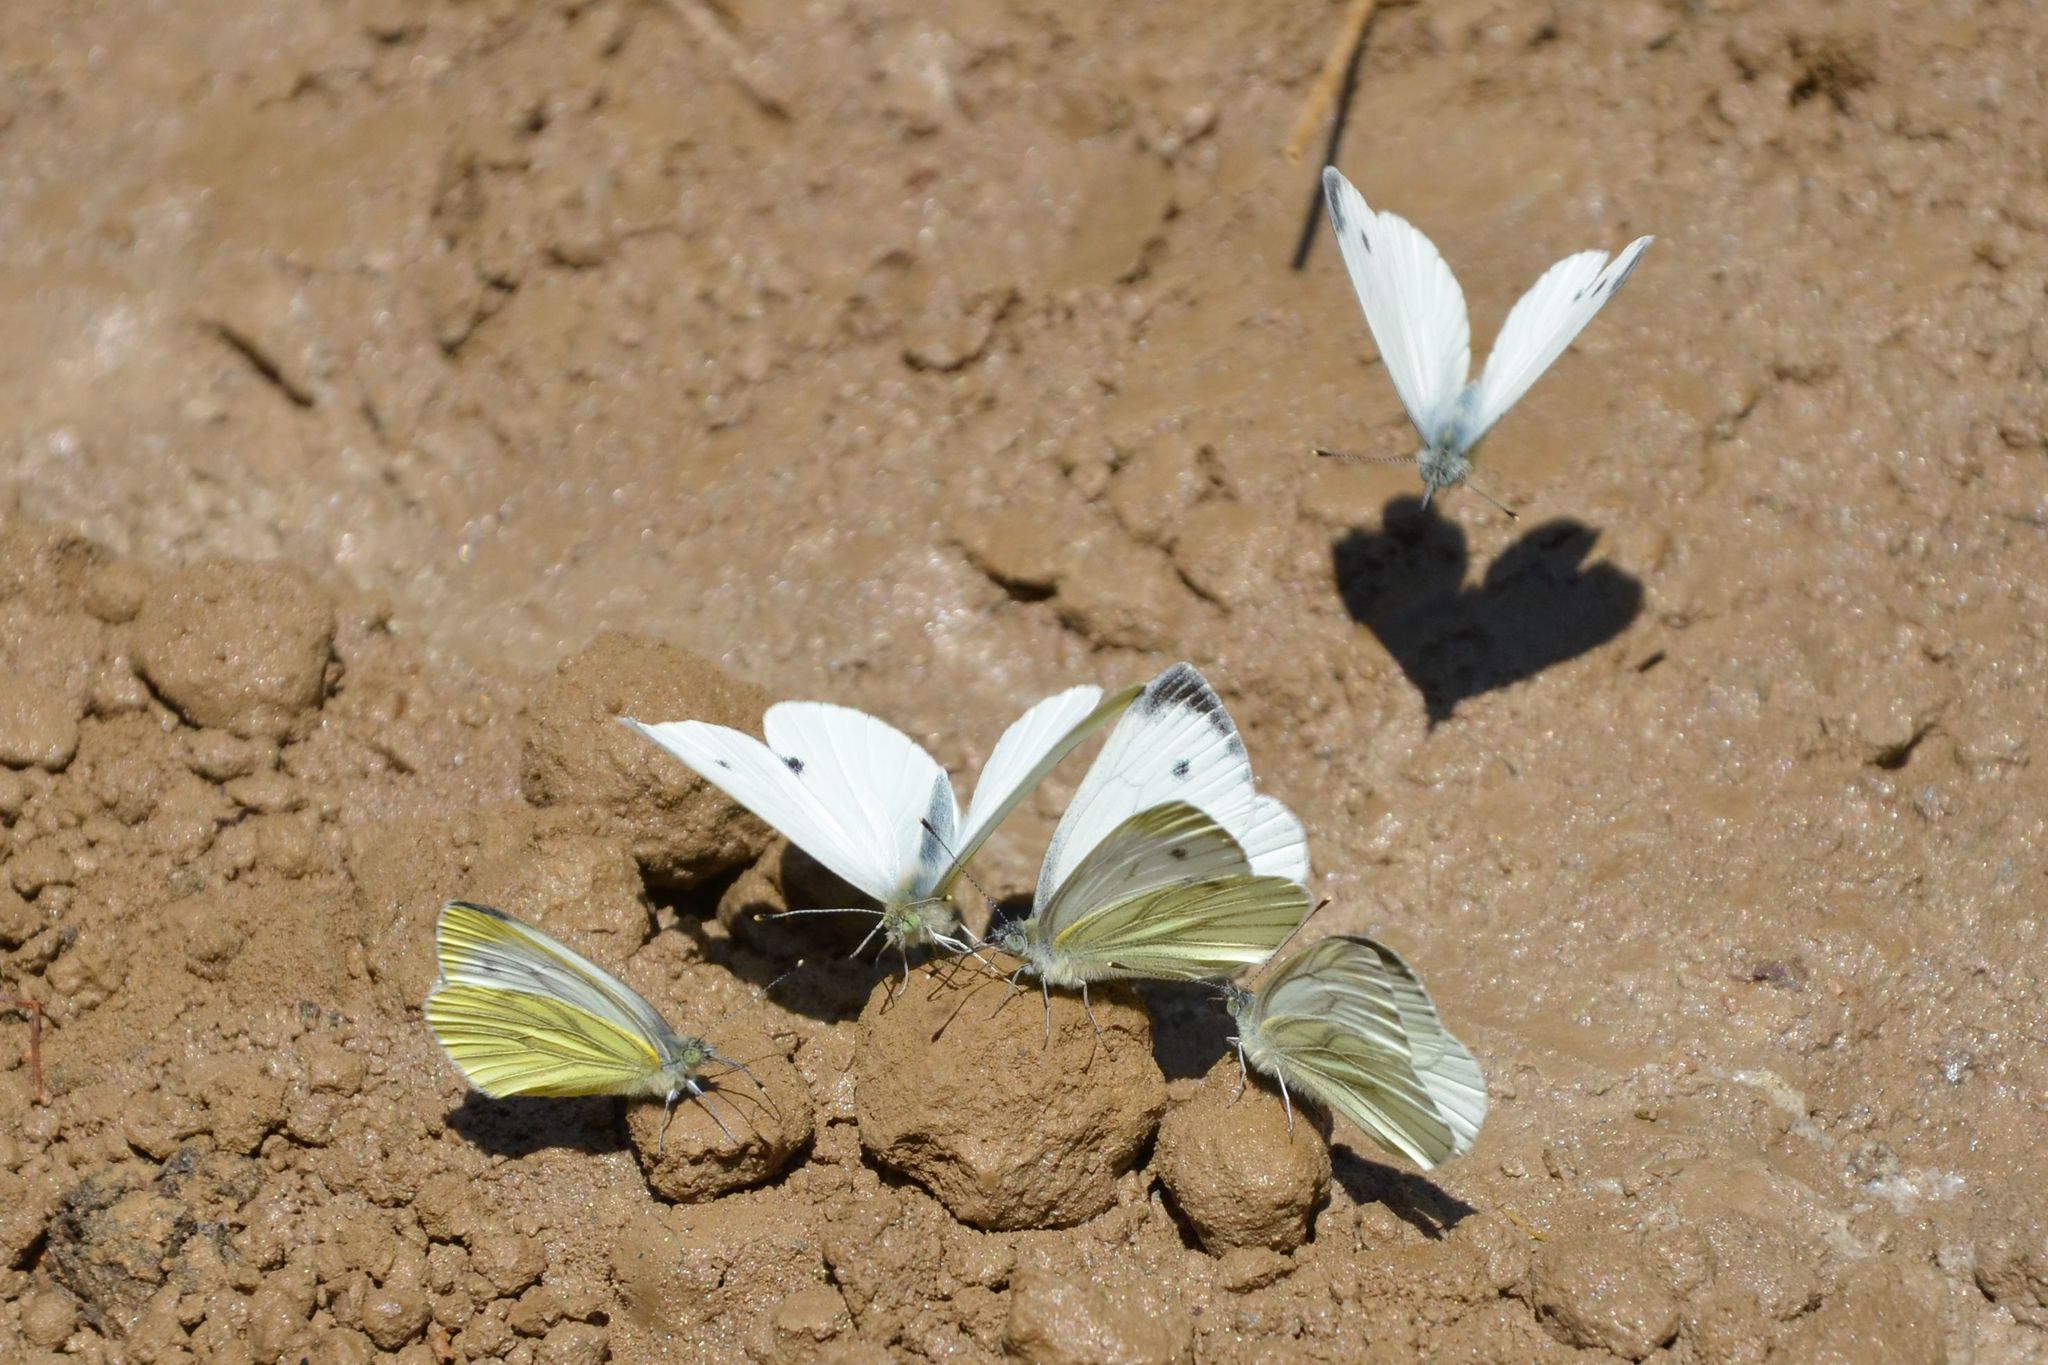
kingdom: Animalia
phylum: Arthropoda
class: Insecta
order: Lepidoptera
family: Pieridae
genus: Pieris
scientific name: Pieris napi
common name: Green-veined white
